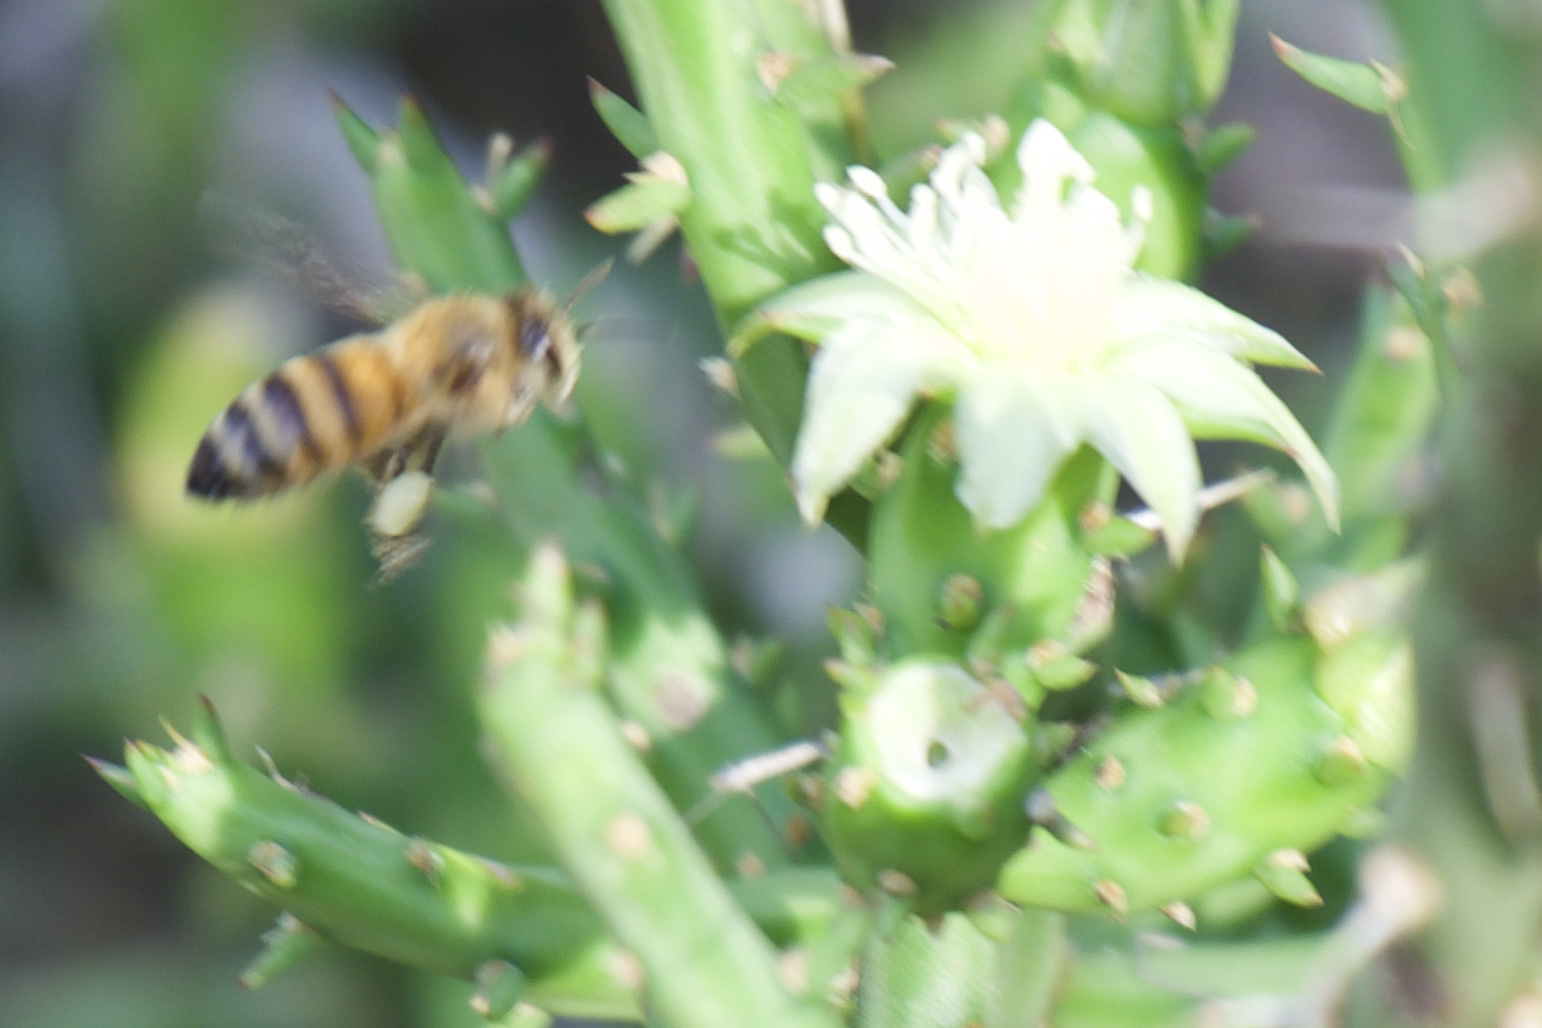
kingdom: Animalia
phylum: Arthropoda
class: Insecta
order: Hymenoptera
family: Apidae
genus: Apis
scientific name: Apis mellifera
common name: Honey bee
